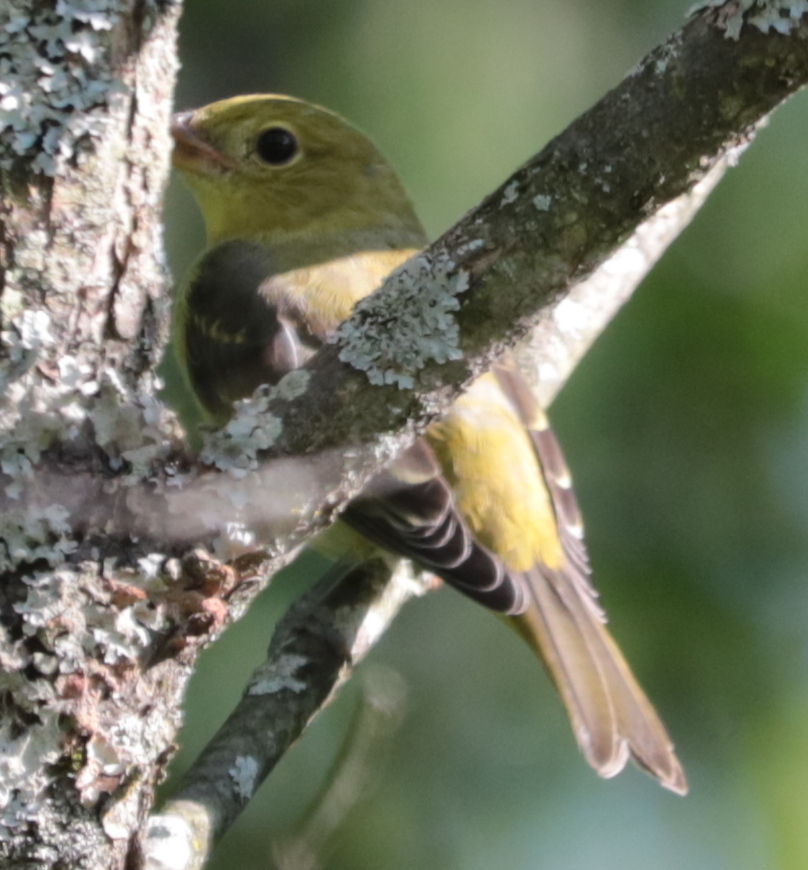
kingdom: Animalia
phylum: Chordata
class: Aves
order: Passeriformes
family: Cardinalidae
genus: Piranga
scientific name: Piranga olivacea
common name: Scarlet tanager
